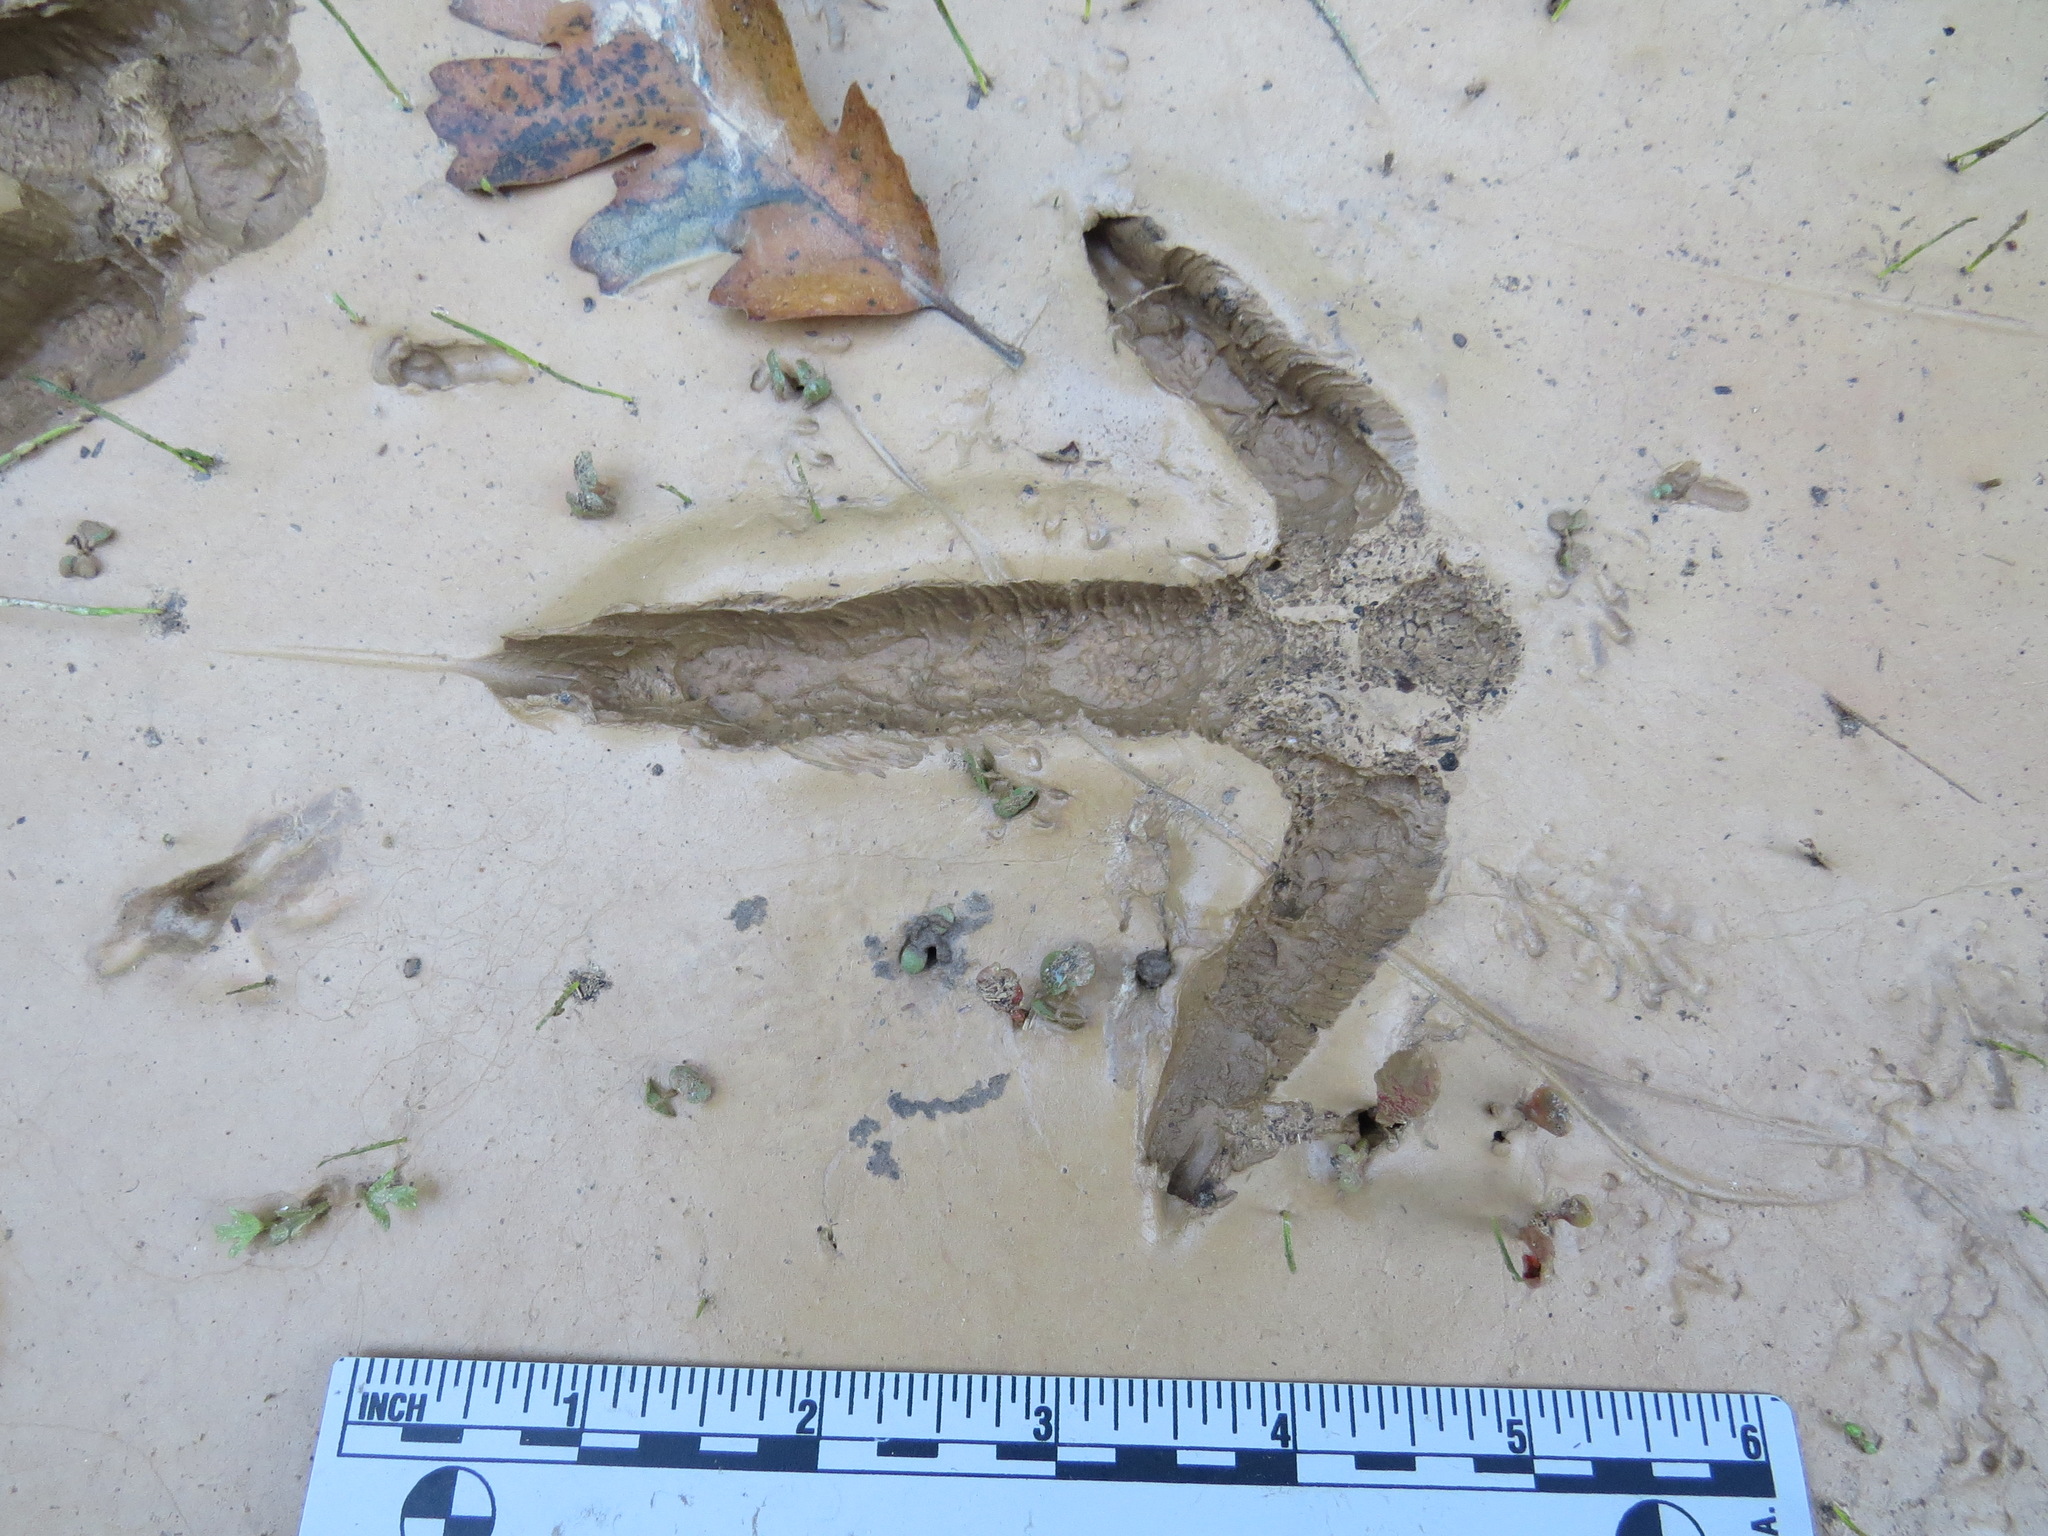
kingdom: Animalia
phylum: Chordata
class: Aves
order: Galliformes
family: Phasianidae
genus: Meleagris
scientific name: Meleagris gallopavo
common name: Wild turkey
